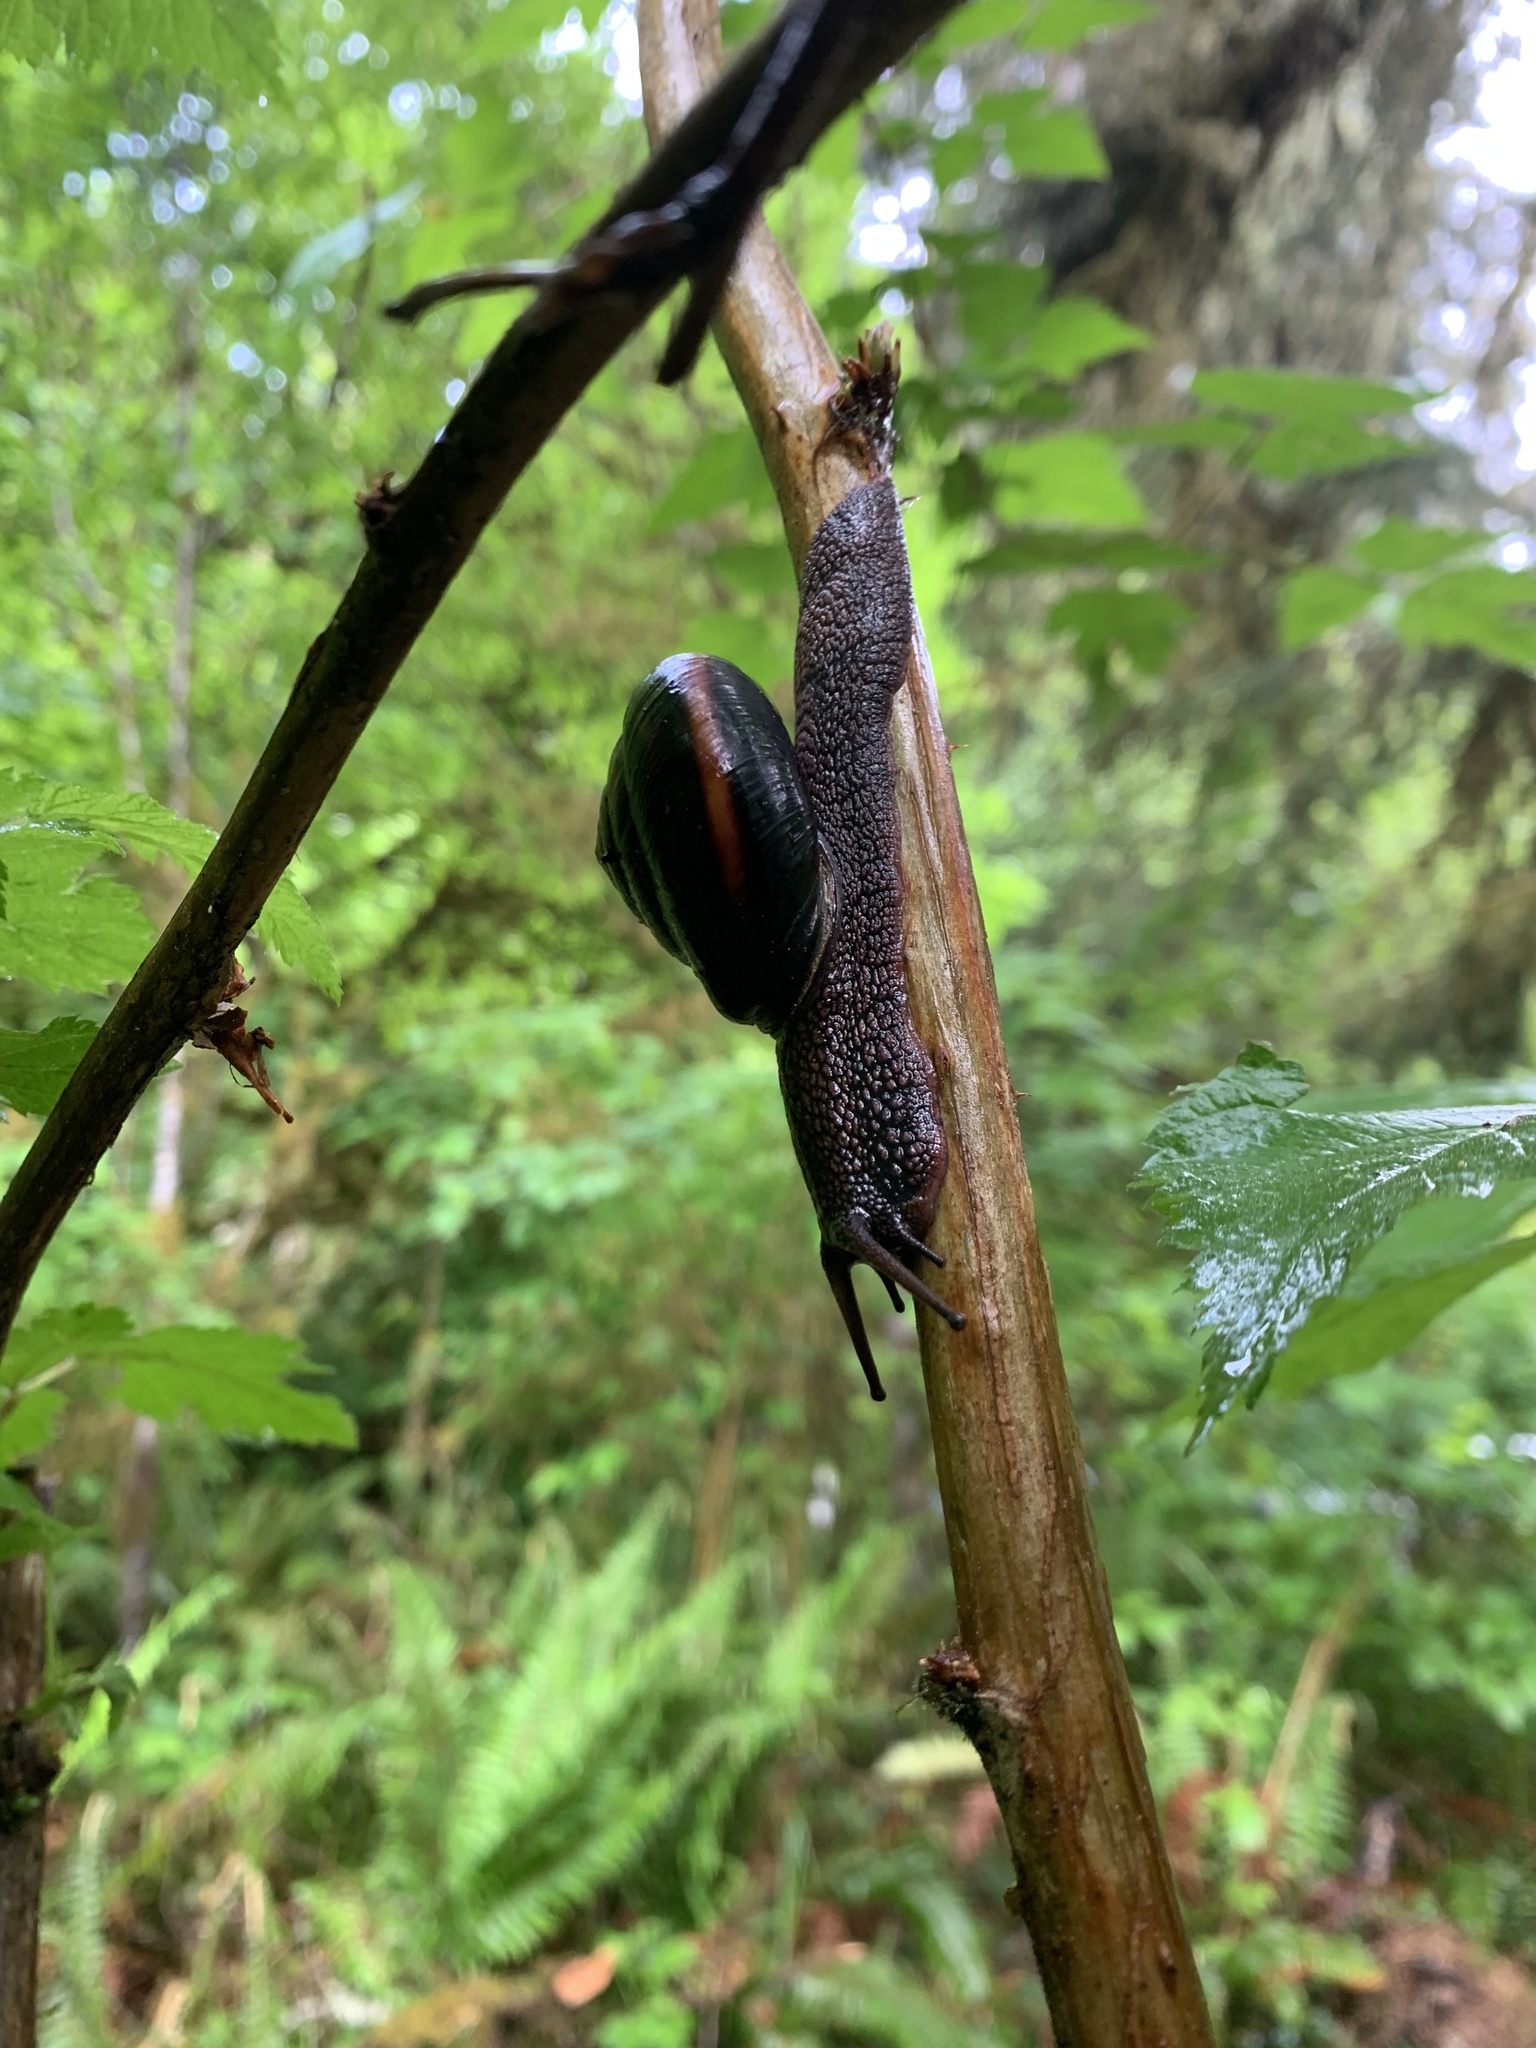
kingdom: Animalia
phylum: Mollusca
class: Gastropoda
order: Stylommatophora
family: Xanthonychidae
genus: Monadenia
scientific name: Monadenia fidelis
